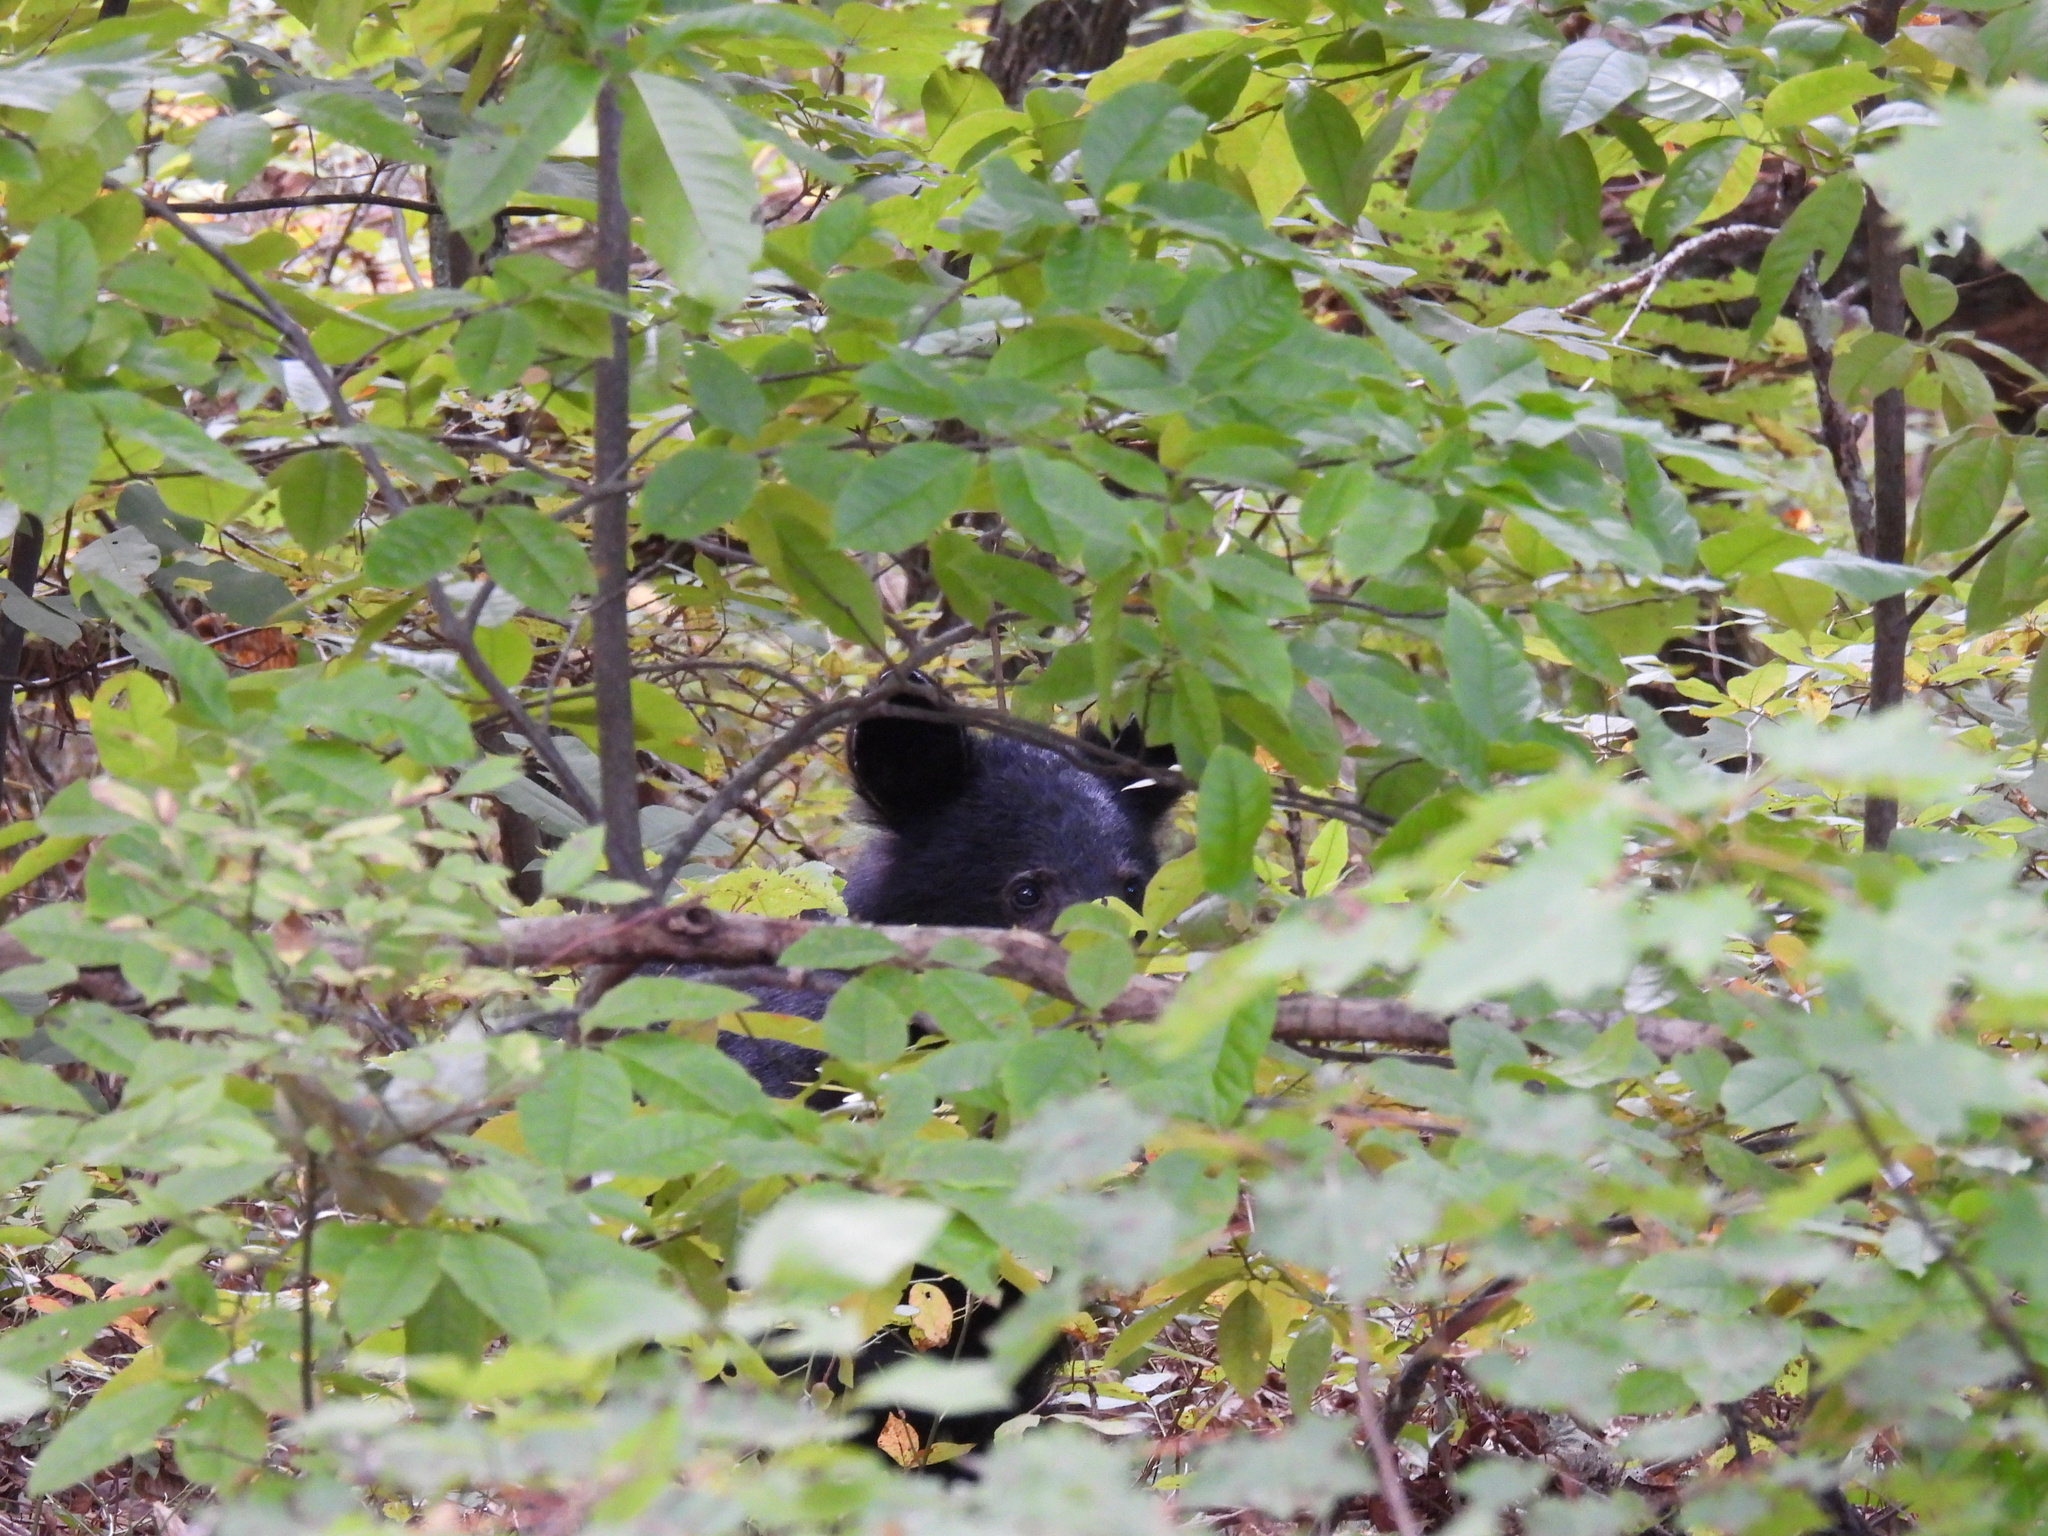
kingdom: Animalia
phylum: Chordata
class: Mammalia
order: Carnivora
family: Ursidae
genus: Ursus
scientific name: Ursus americanus
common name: American black bear
